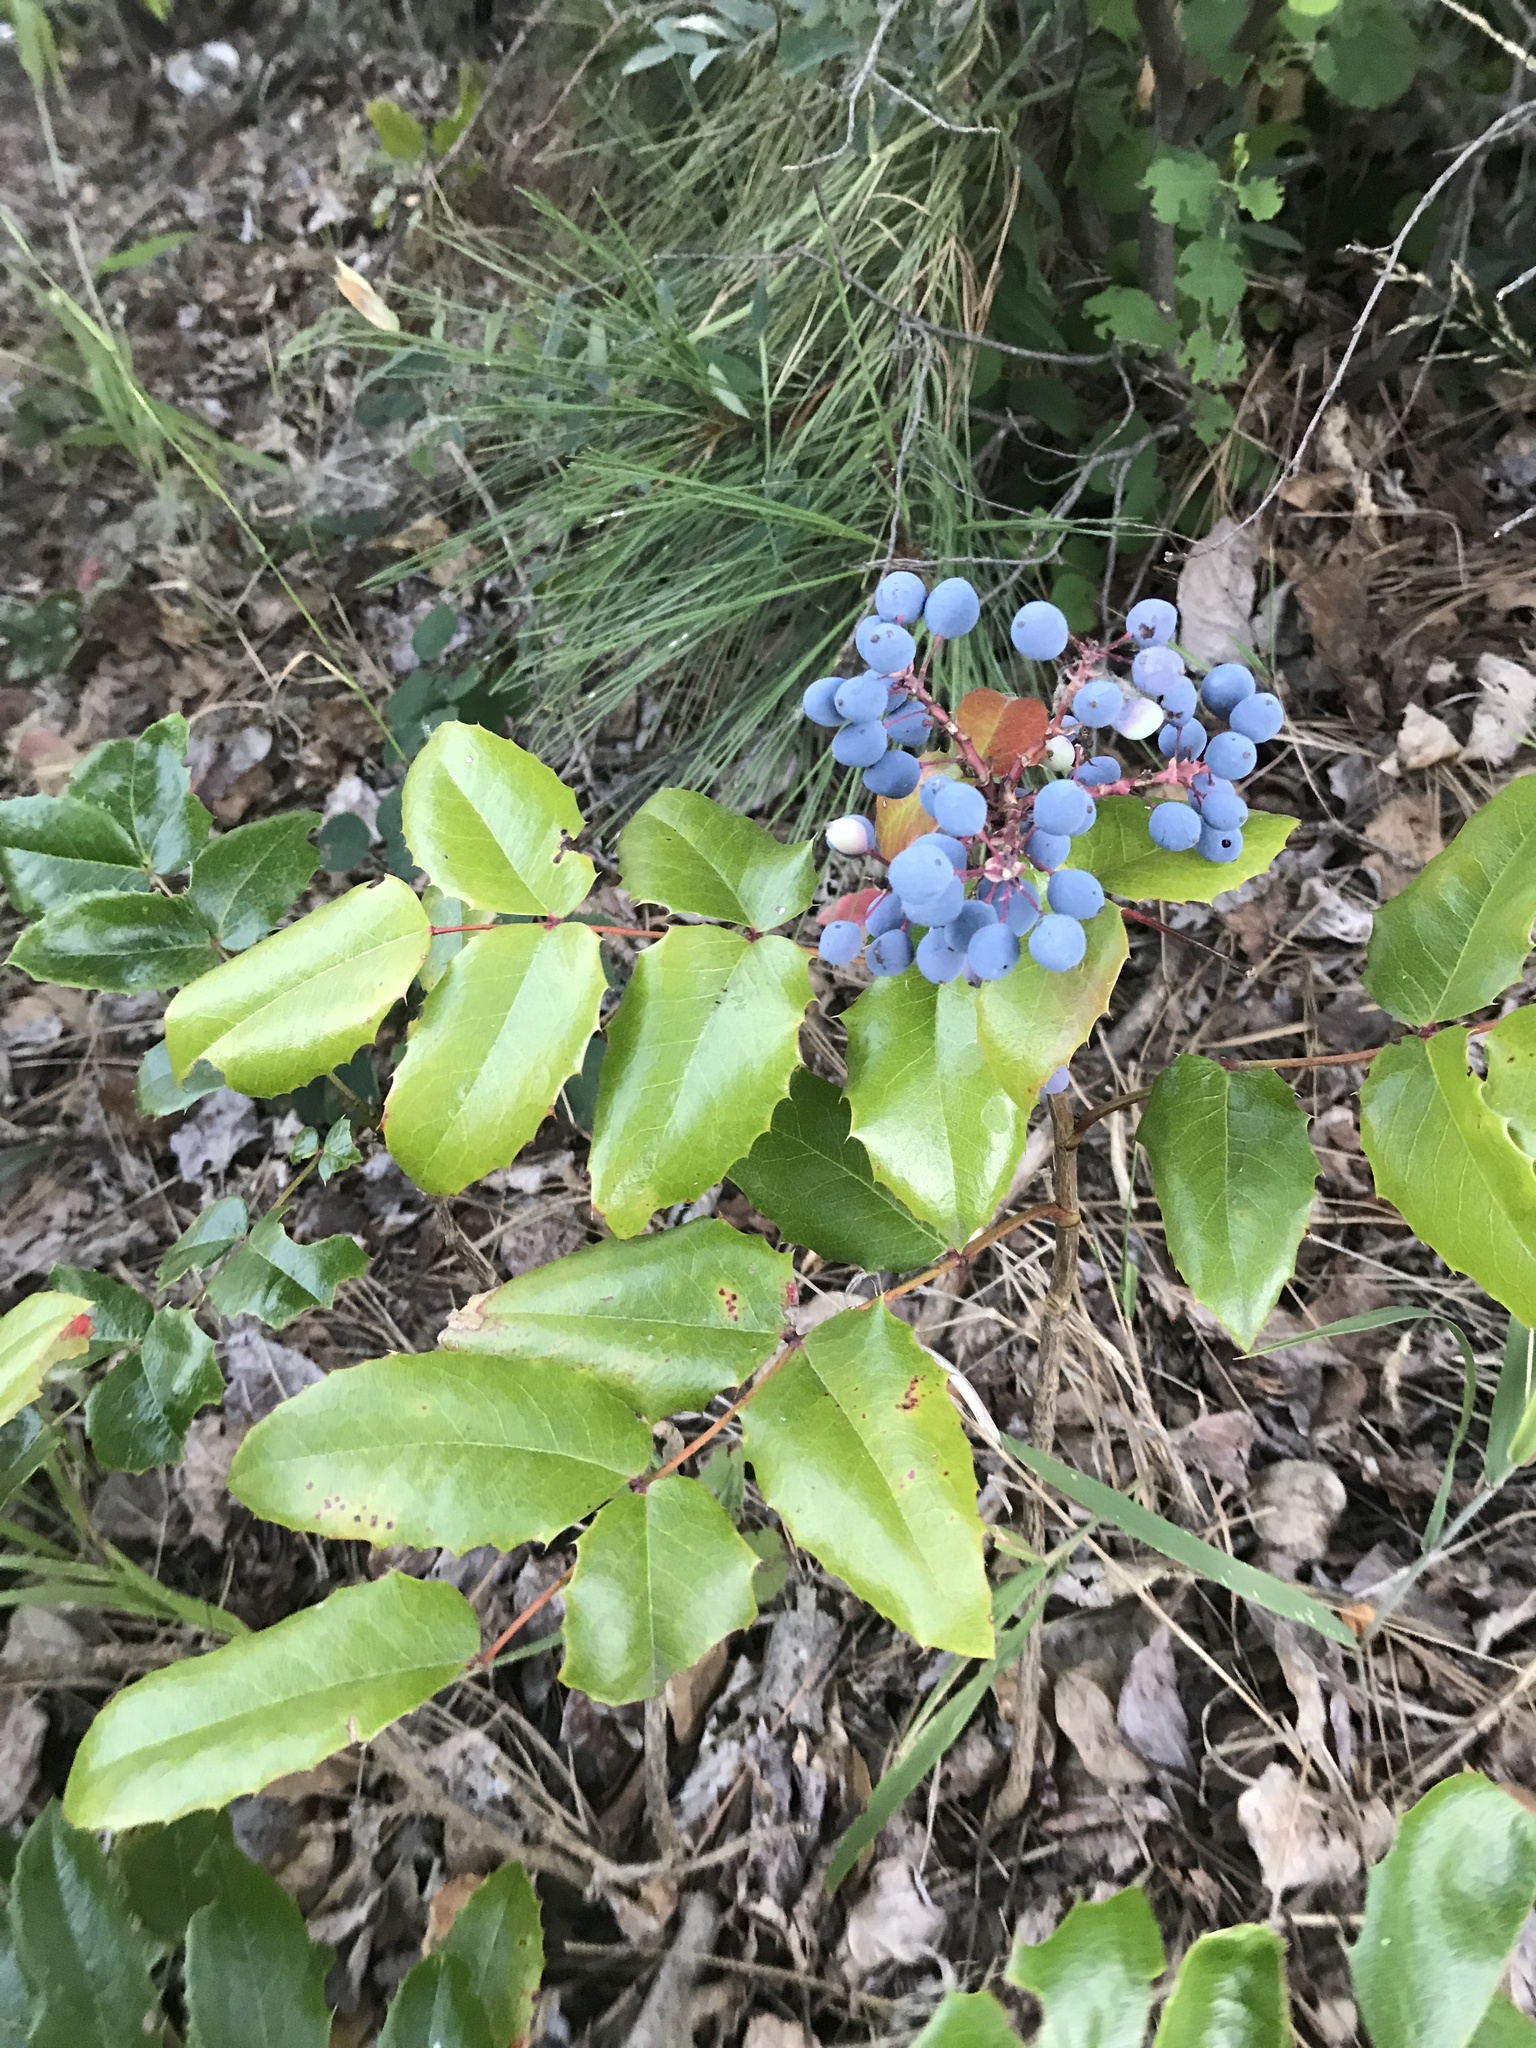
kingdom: Plantae
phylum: Tracheophyta
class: Magnoliopsida
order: Ranunculales
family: Berberidaceae
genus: Mahonia
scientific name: Mahonia aquifolium
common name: Oregon-grape
